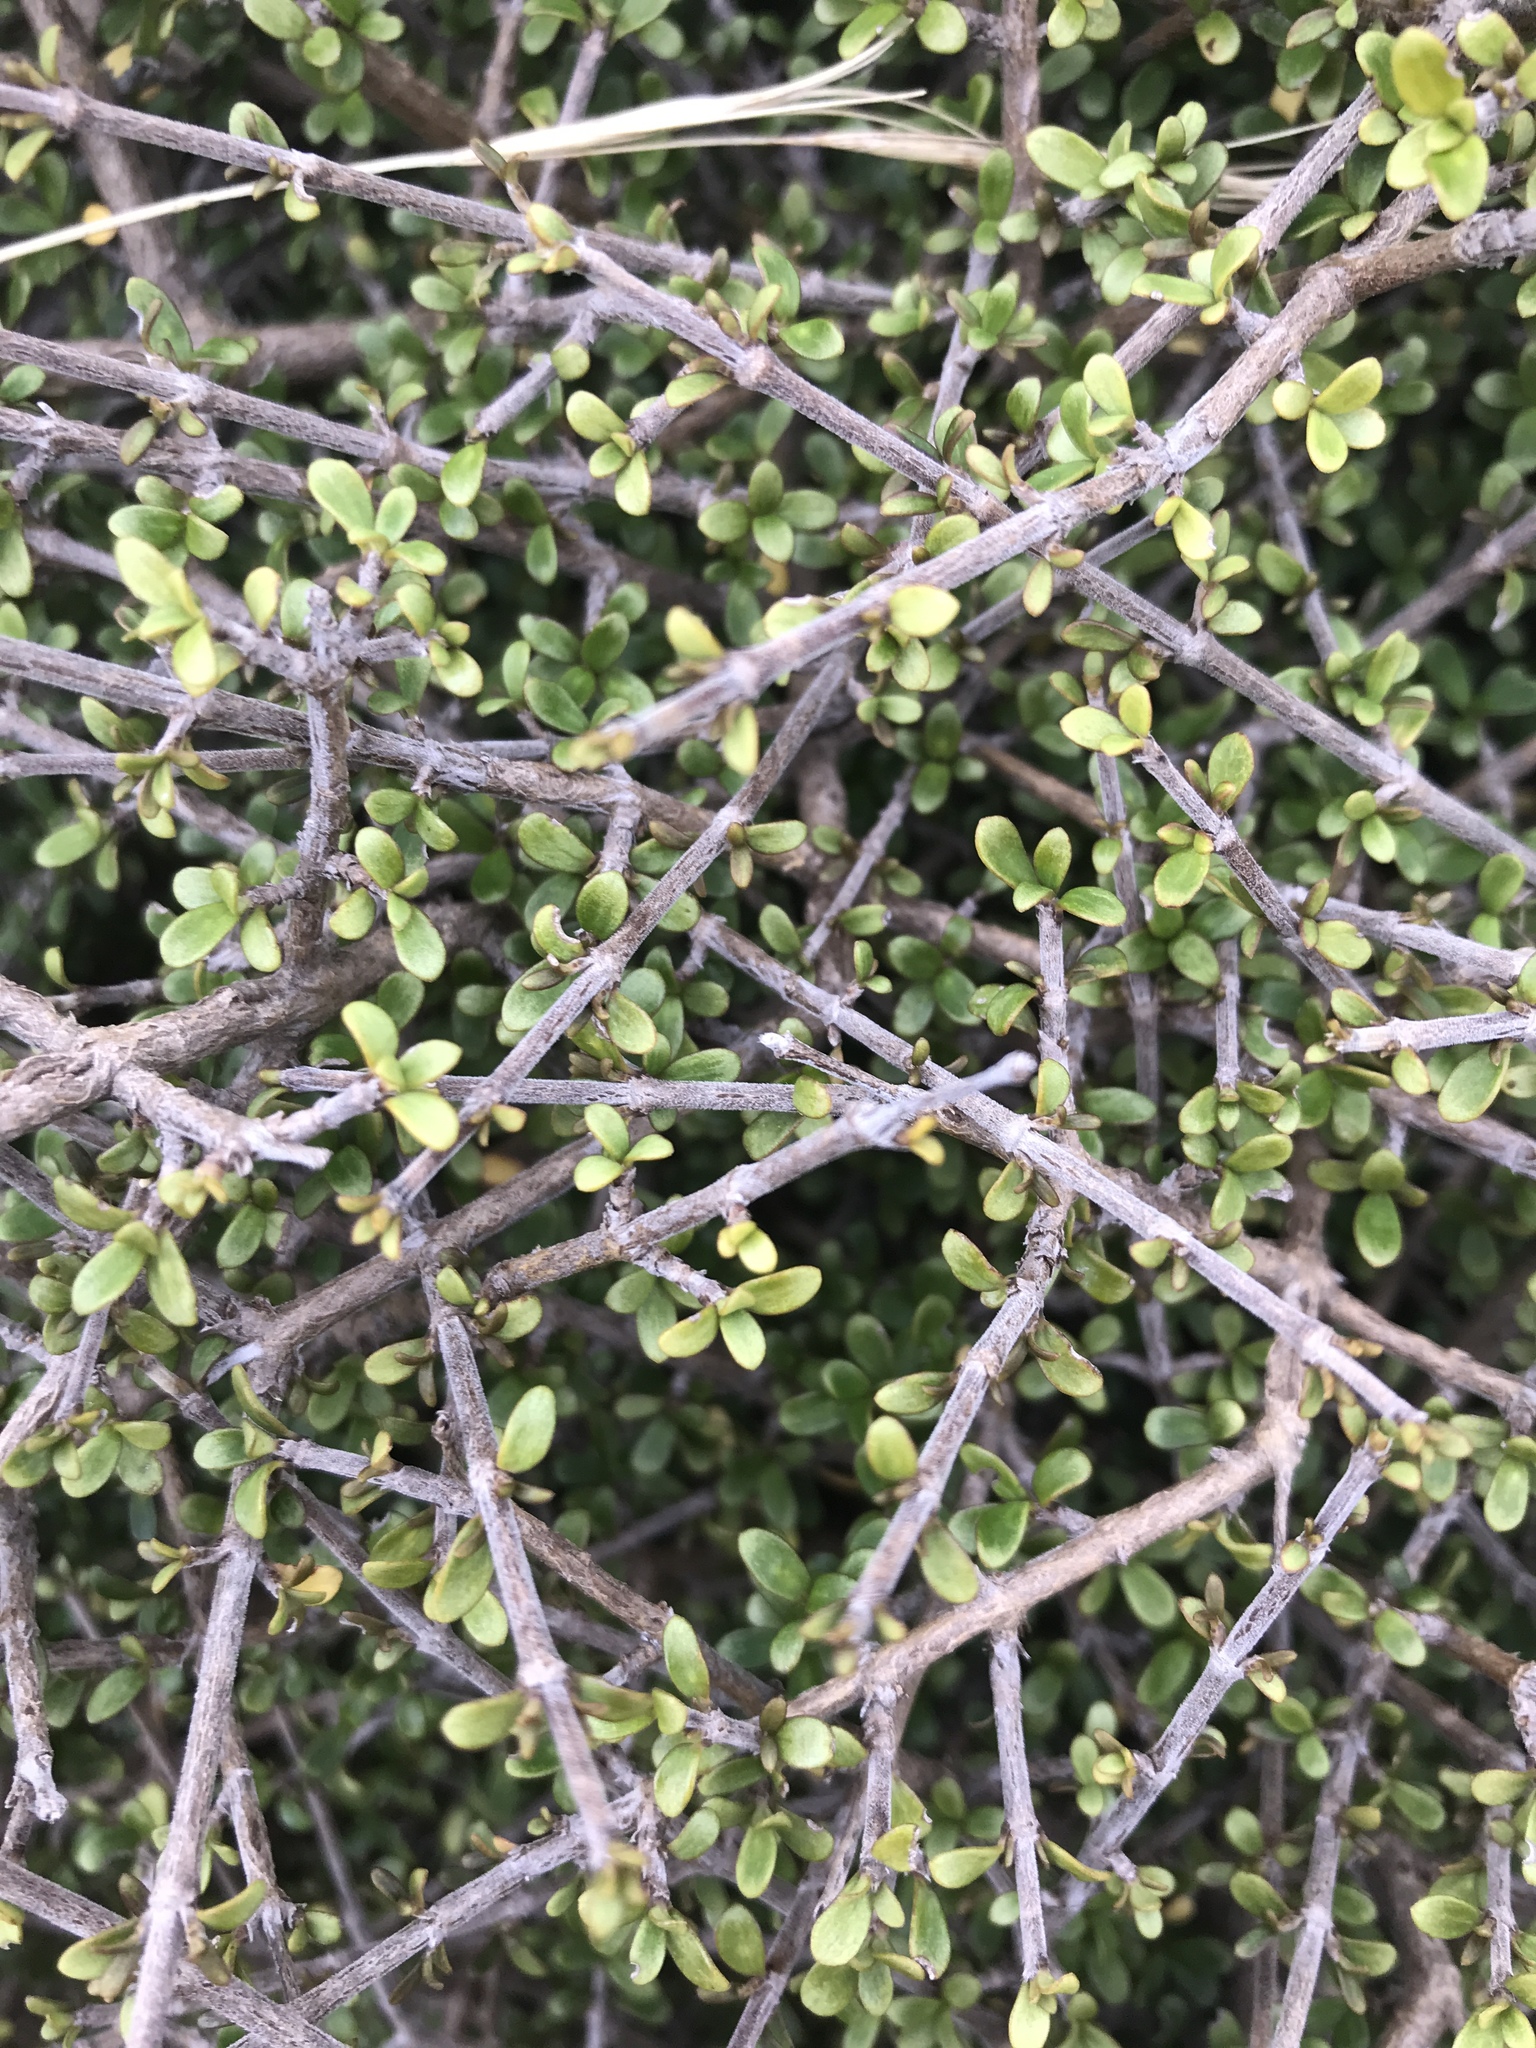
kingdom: Plantae
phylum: Tracheophyta
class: Magnoliopsida
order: Gentianales
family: Rubiaceae
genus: Coprosma
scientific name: Coprosma dumosa
